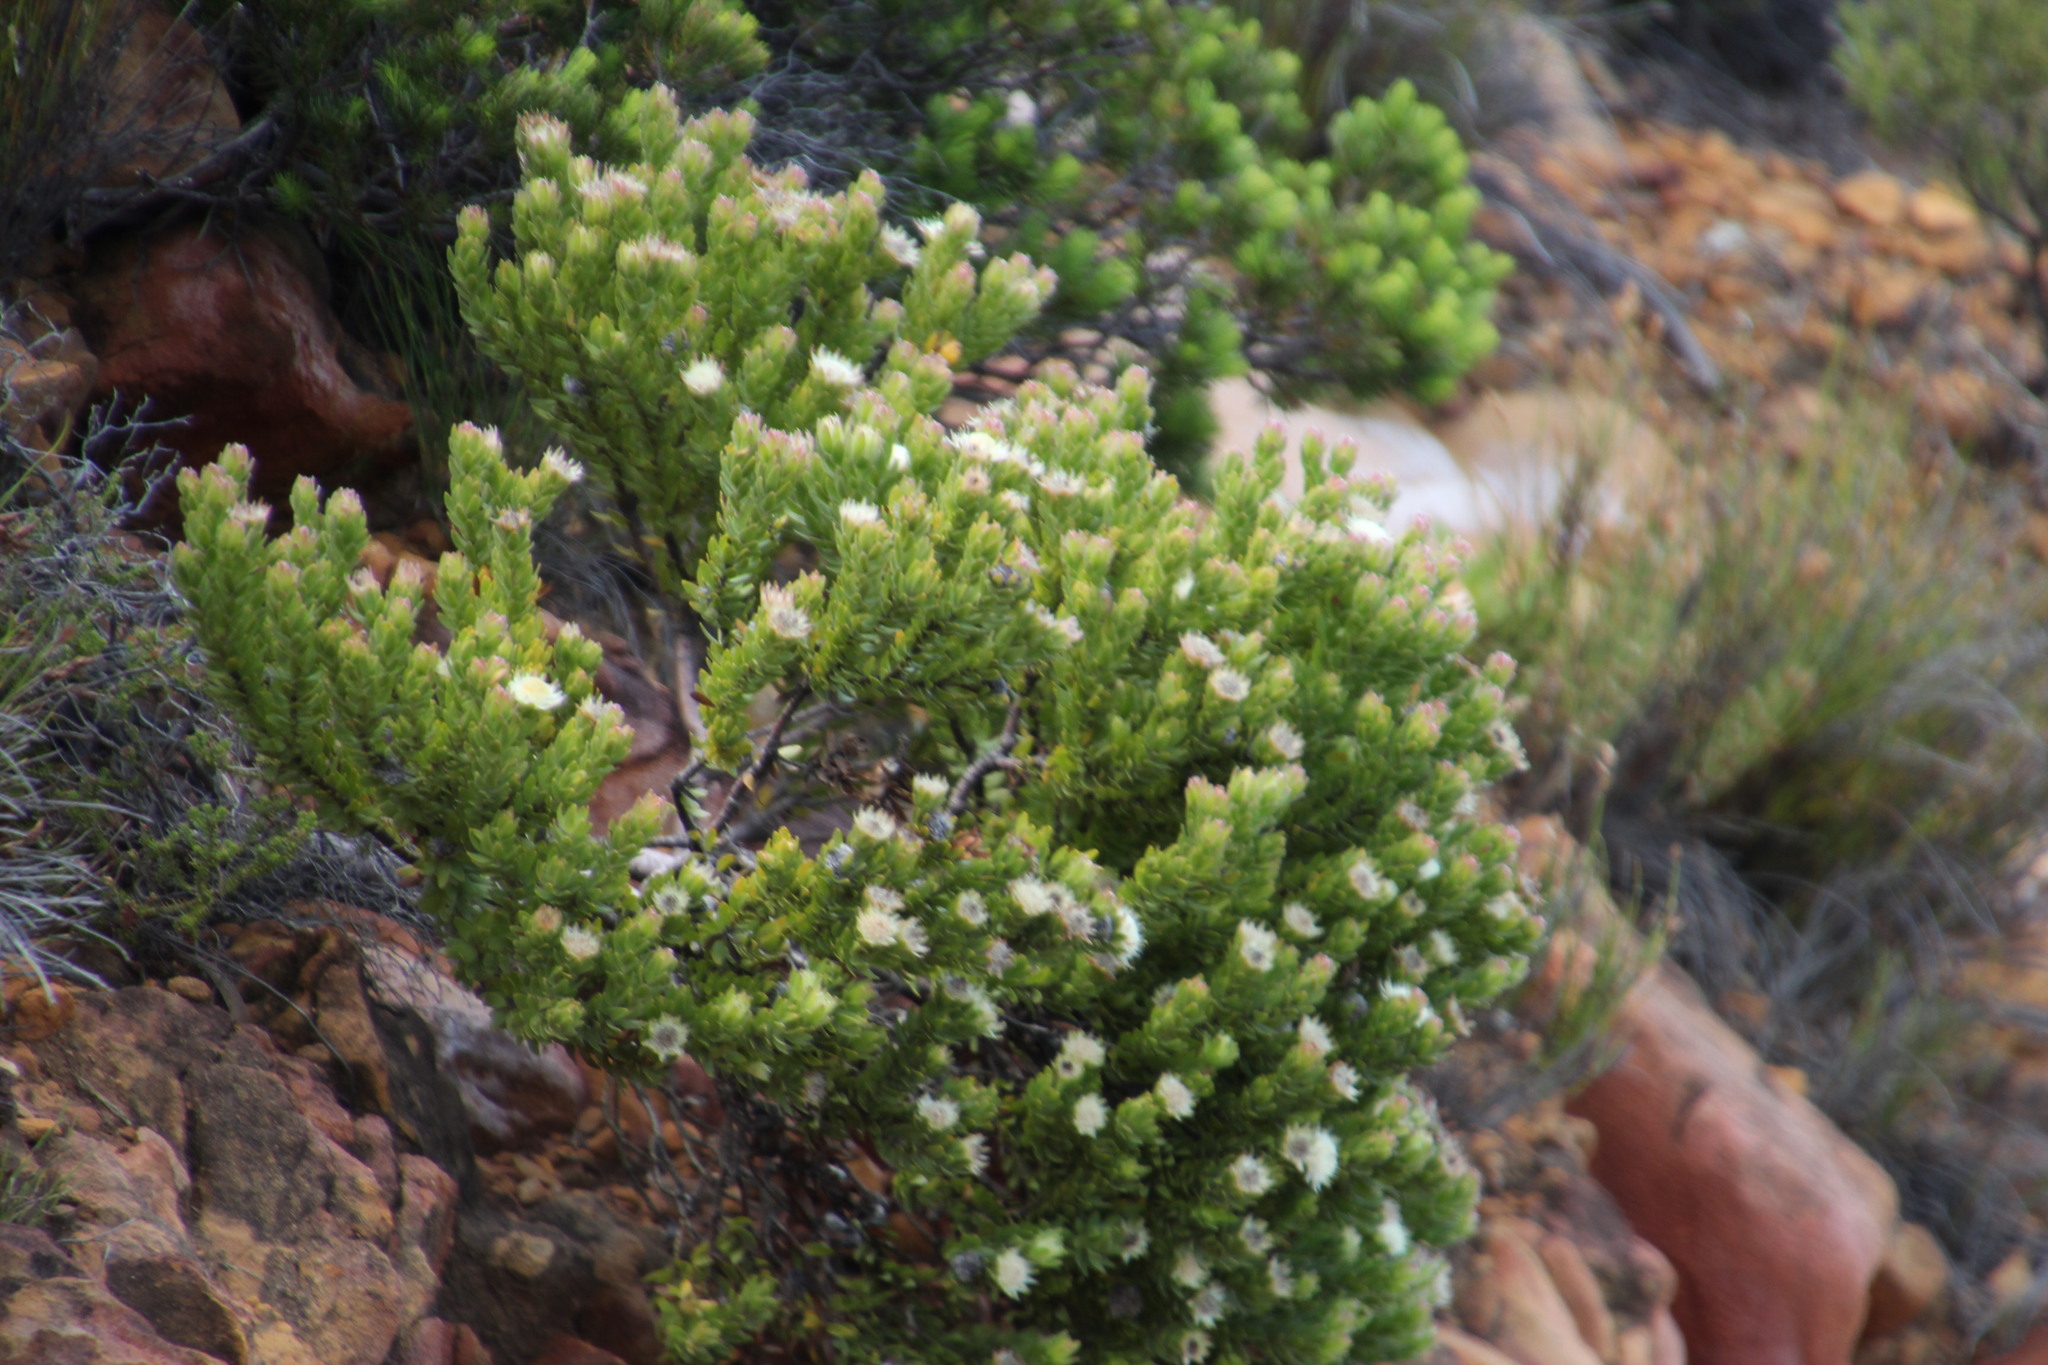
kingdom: Plantae
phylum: Tracheophyta
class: Magnoliopsida
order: Proteales
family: Proteaceae
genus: Diastella
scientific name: Diastella thymelaeoides
